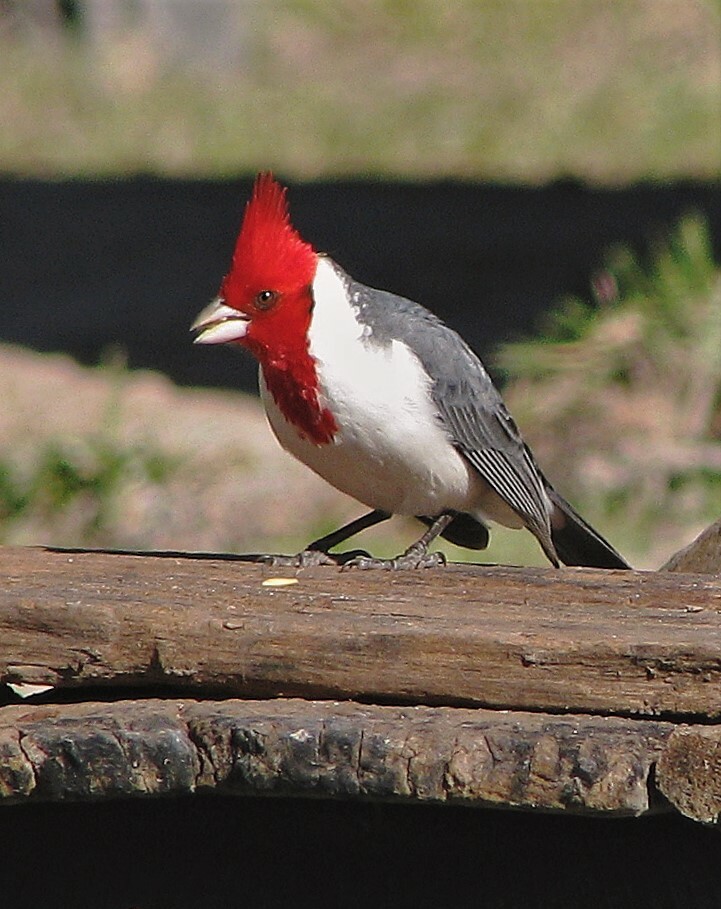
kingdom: Animalia
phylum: Chordata
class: Aves
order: Passeriformes
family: Thraupidae
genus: Paroaria
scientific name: Paroaria coronata
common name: Red-crested cardinal
